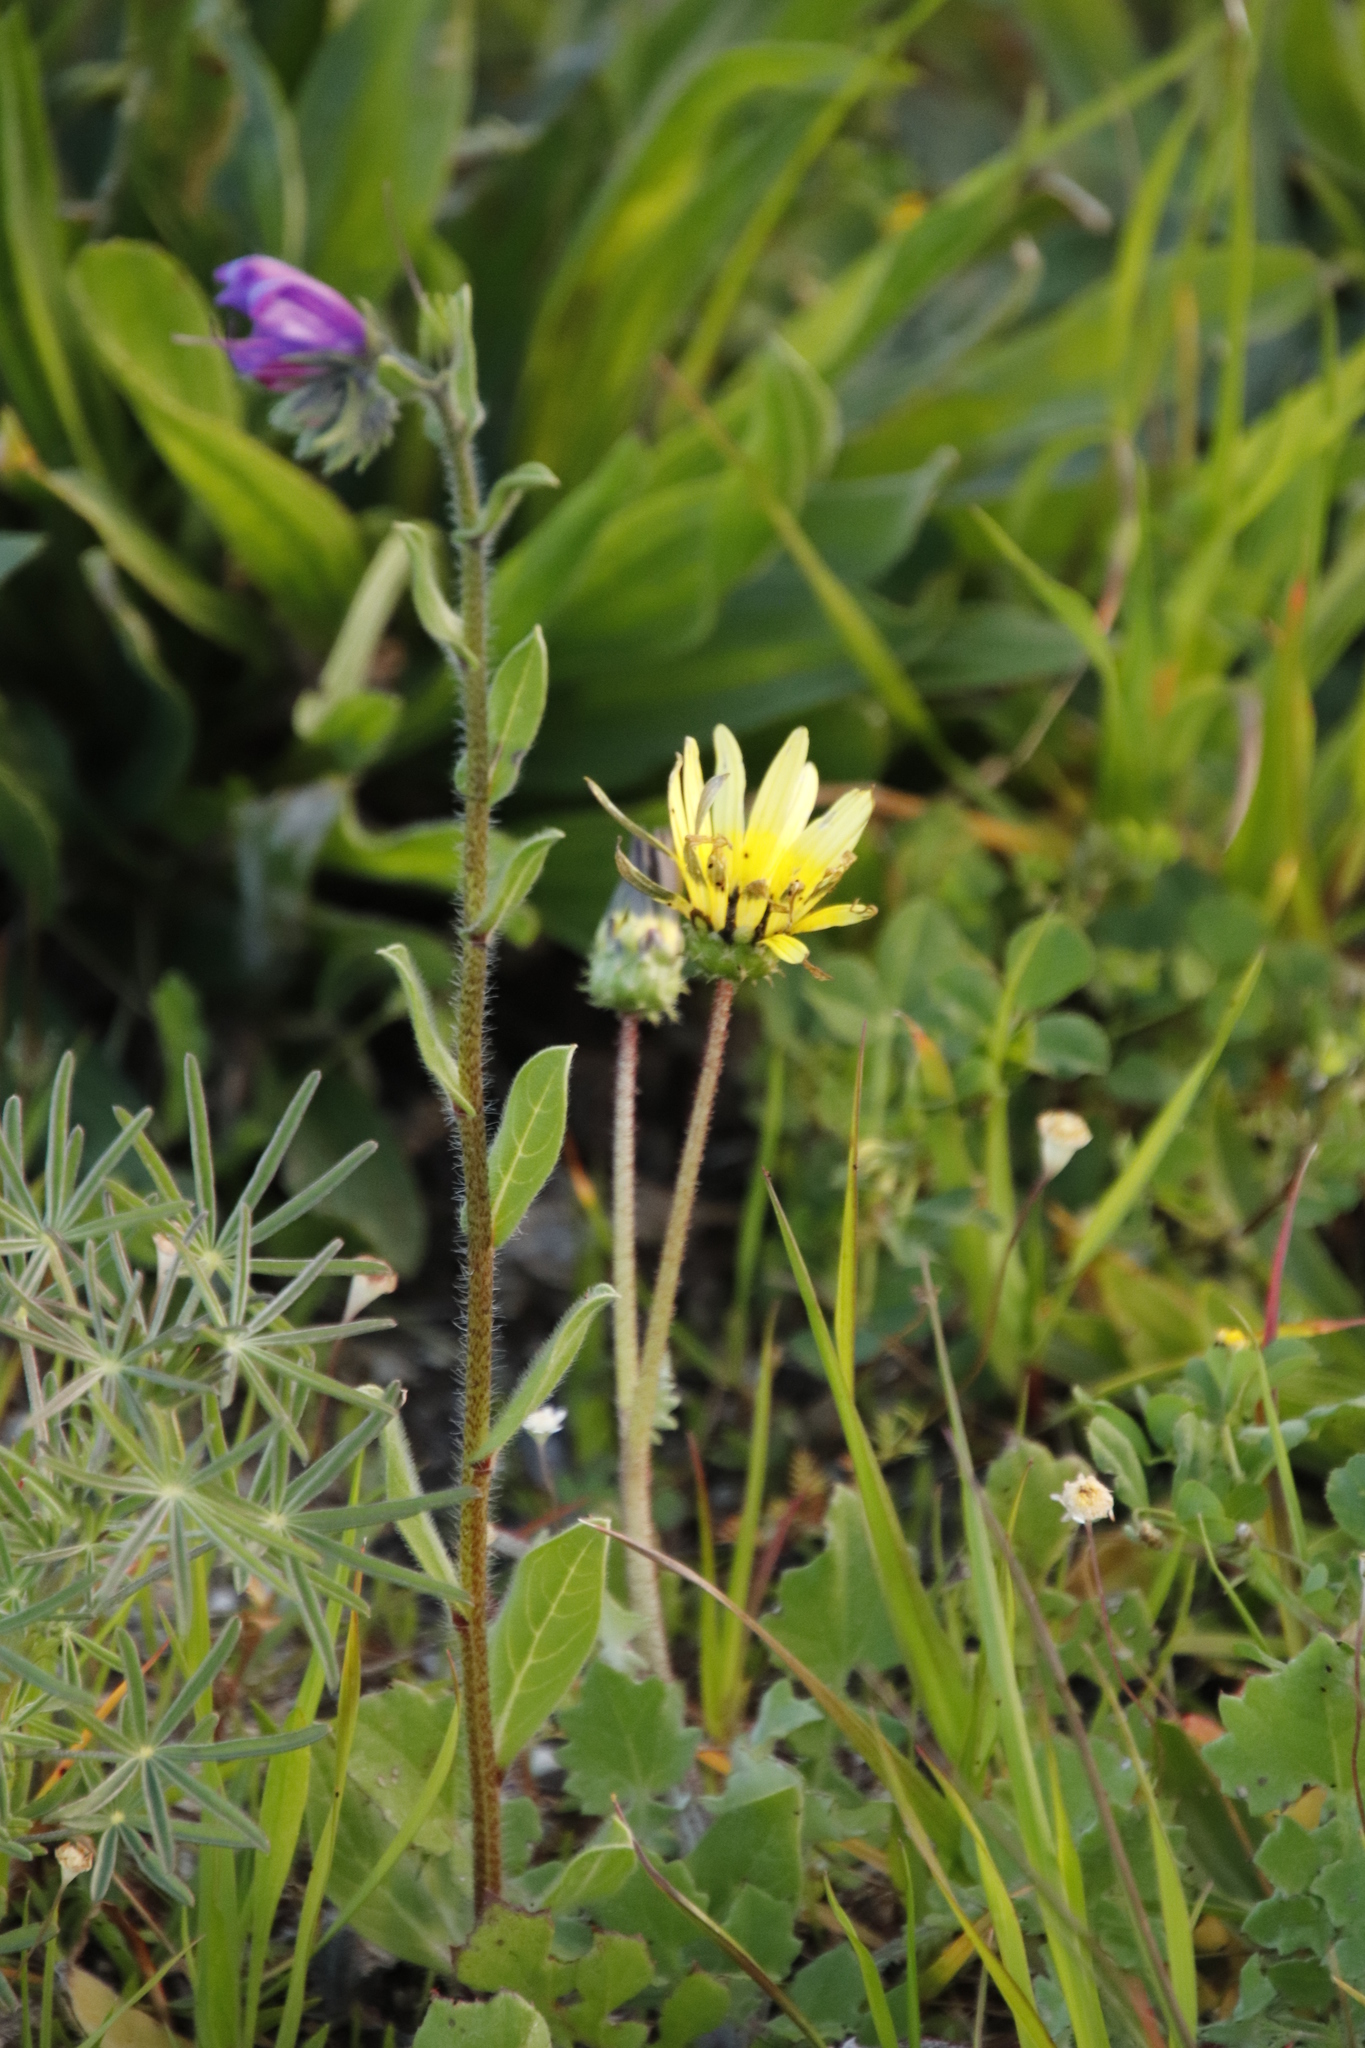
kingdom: Plantae
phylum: Tracheophyta
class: Magnoliopsida
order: Asterales
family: Asteraceae
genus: Arctotheca
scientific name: Arctotheca calendula
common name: Capeweed
